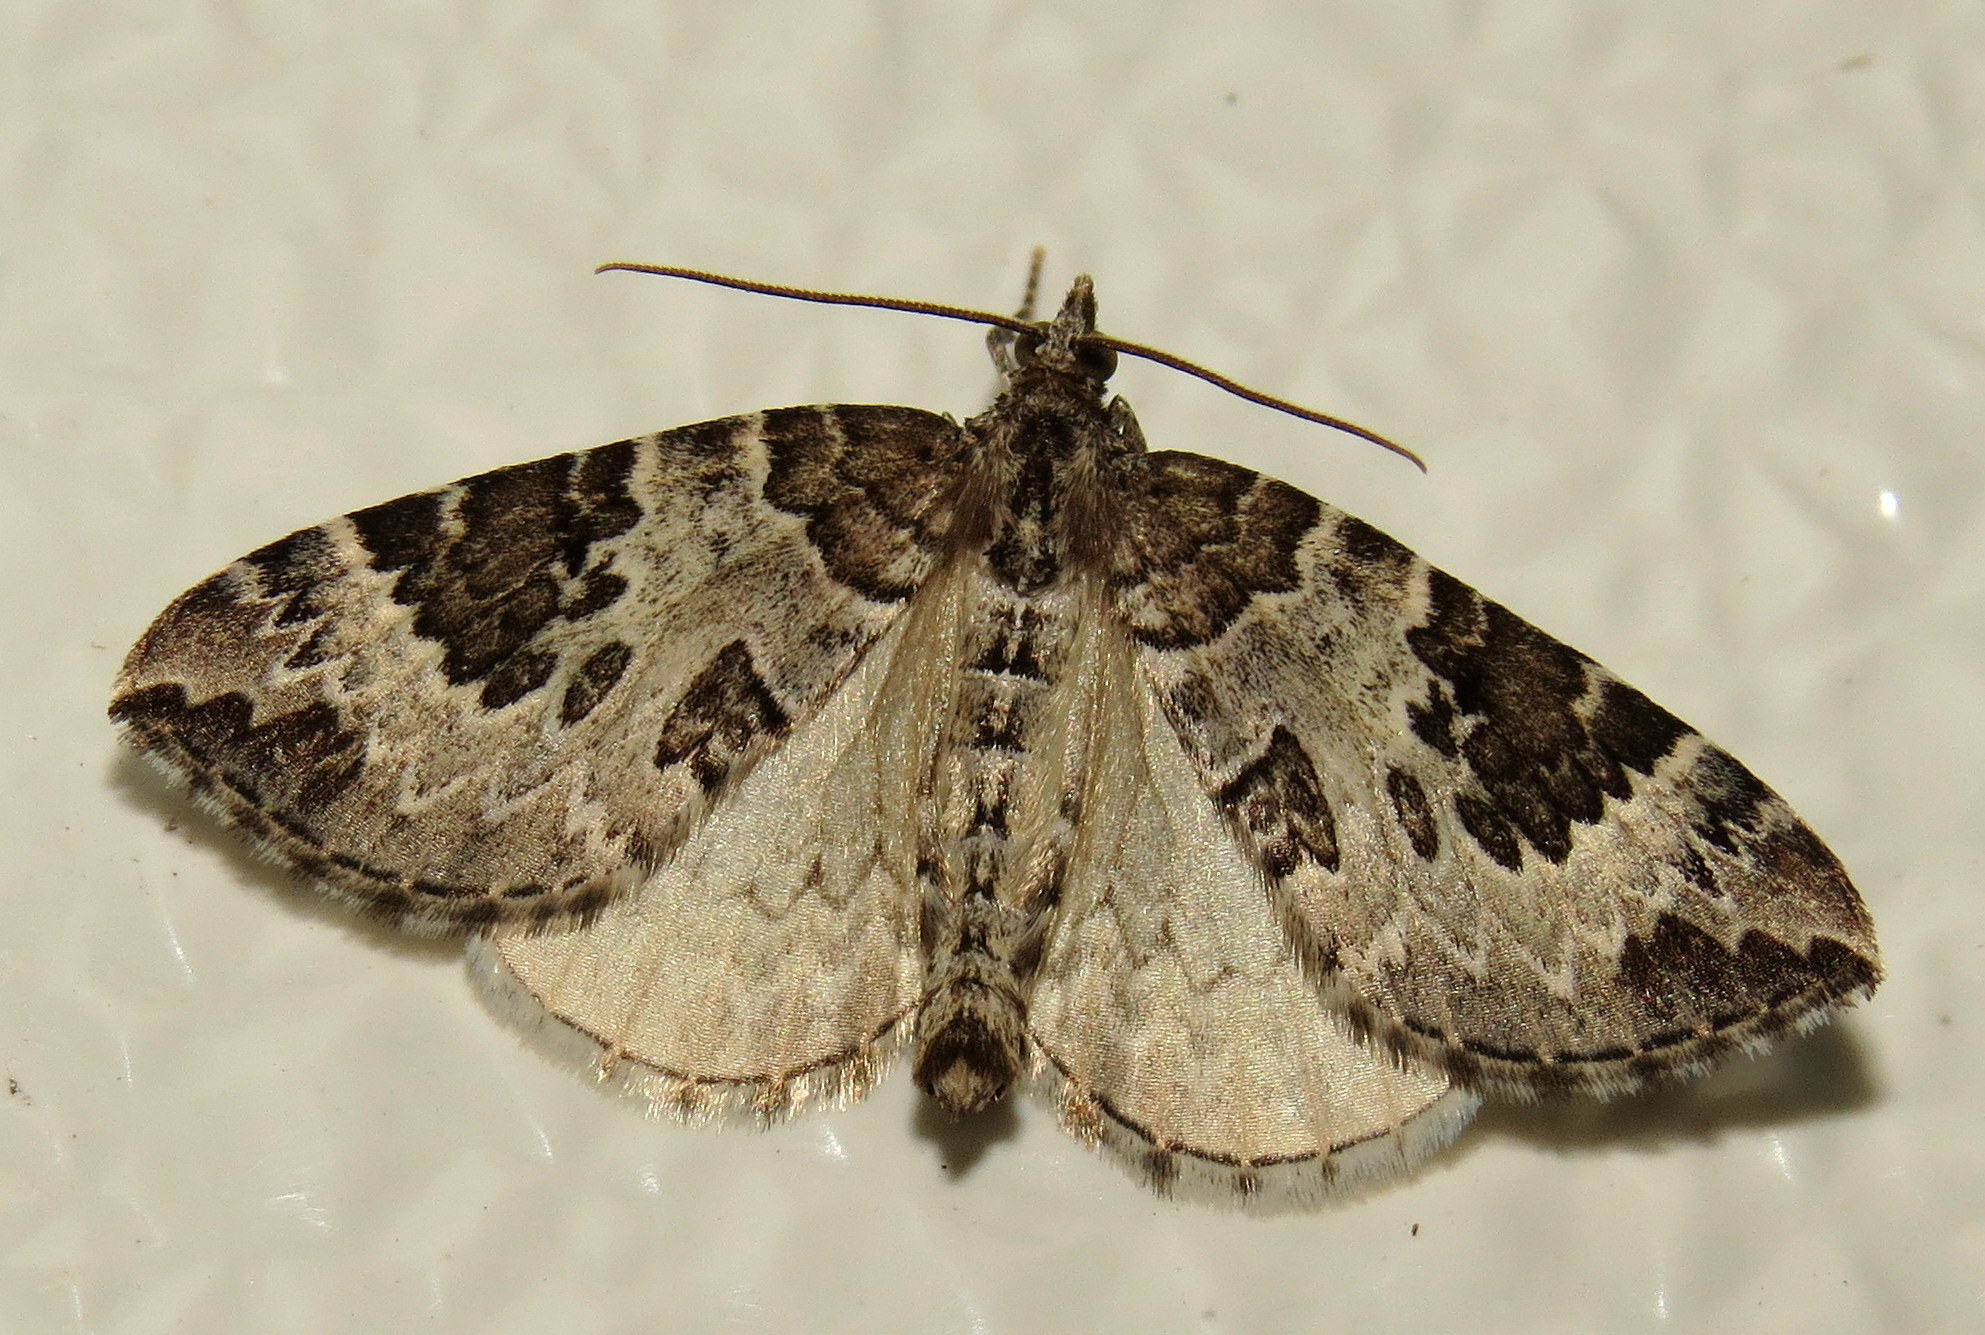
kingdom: Animalia
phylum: Arthropoda
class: Insecta
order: Lepidoptera
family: Geometridae
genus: Eulithis
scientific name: Eulithis explanata
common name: White eulithis
